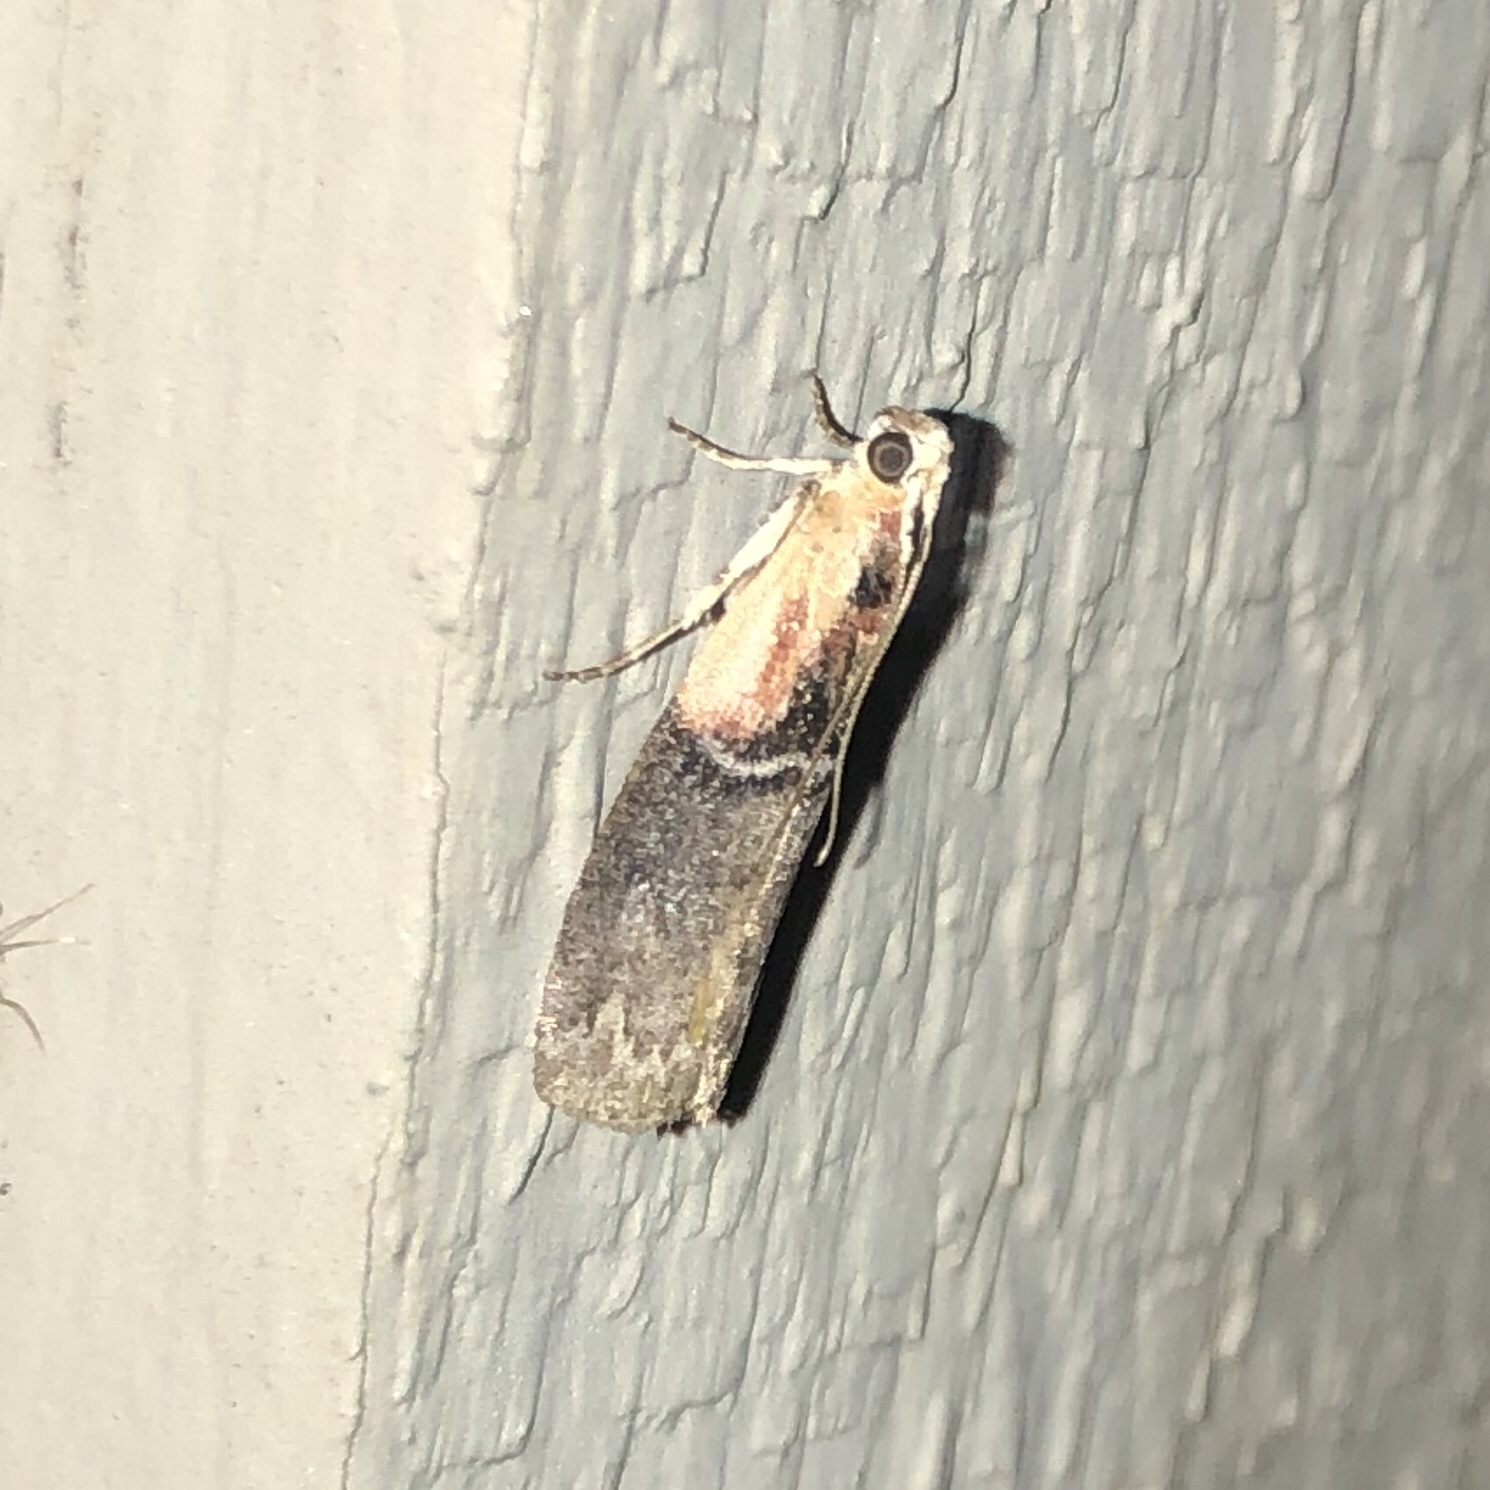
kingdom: Animalia
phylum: Arthropoda
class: Insecta
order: Lepidoptera
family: Pyralidae
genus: Sciota
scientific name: Sciota basilaris
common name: Yellow-shouldered leafroller
